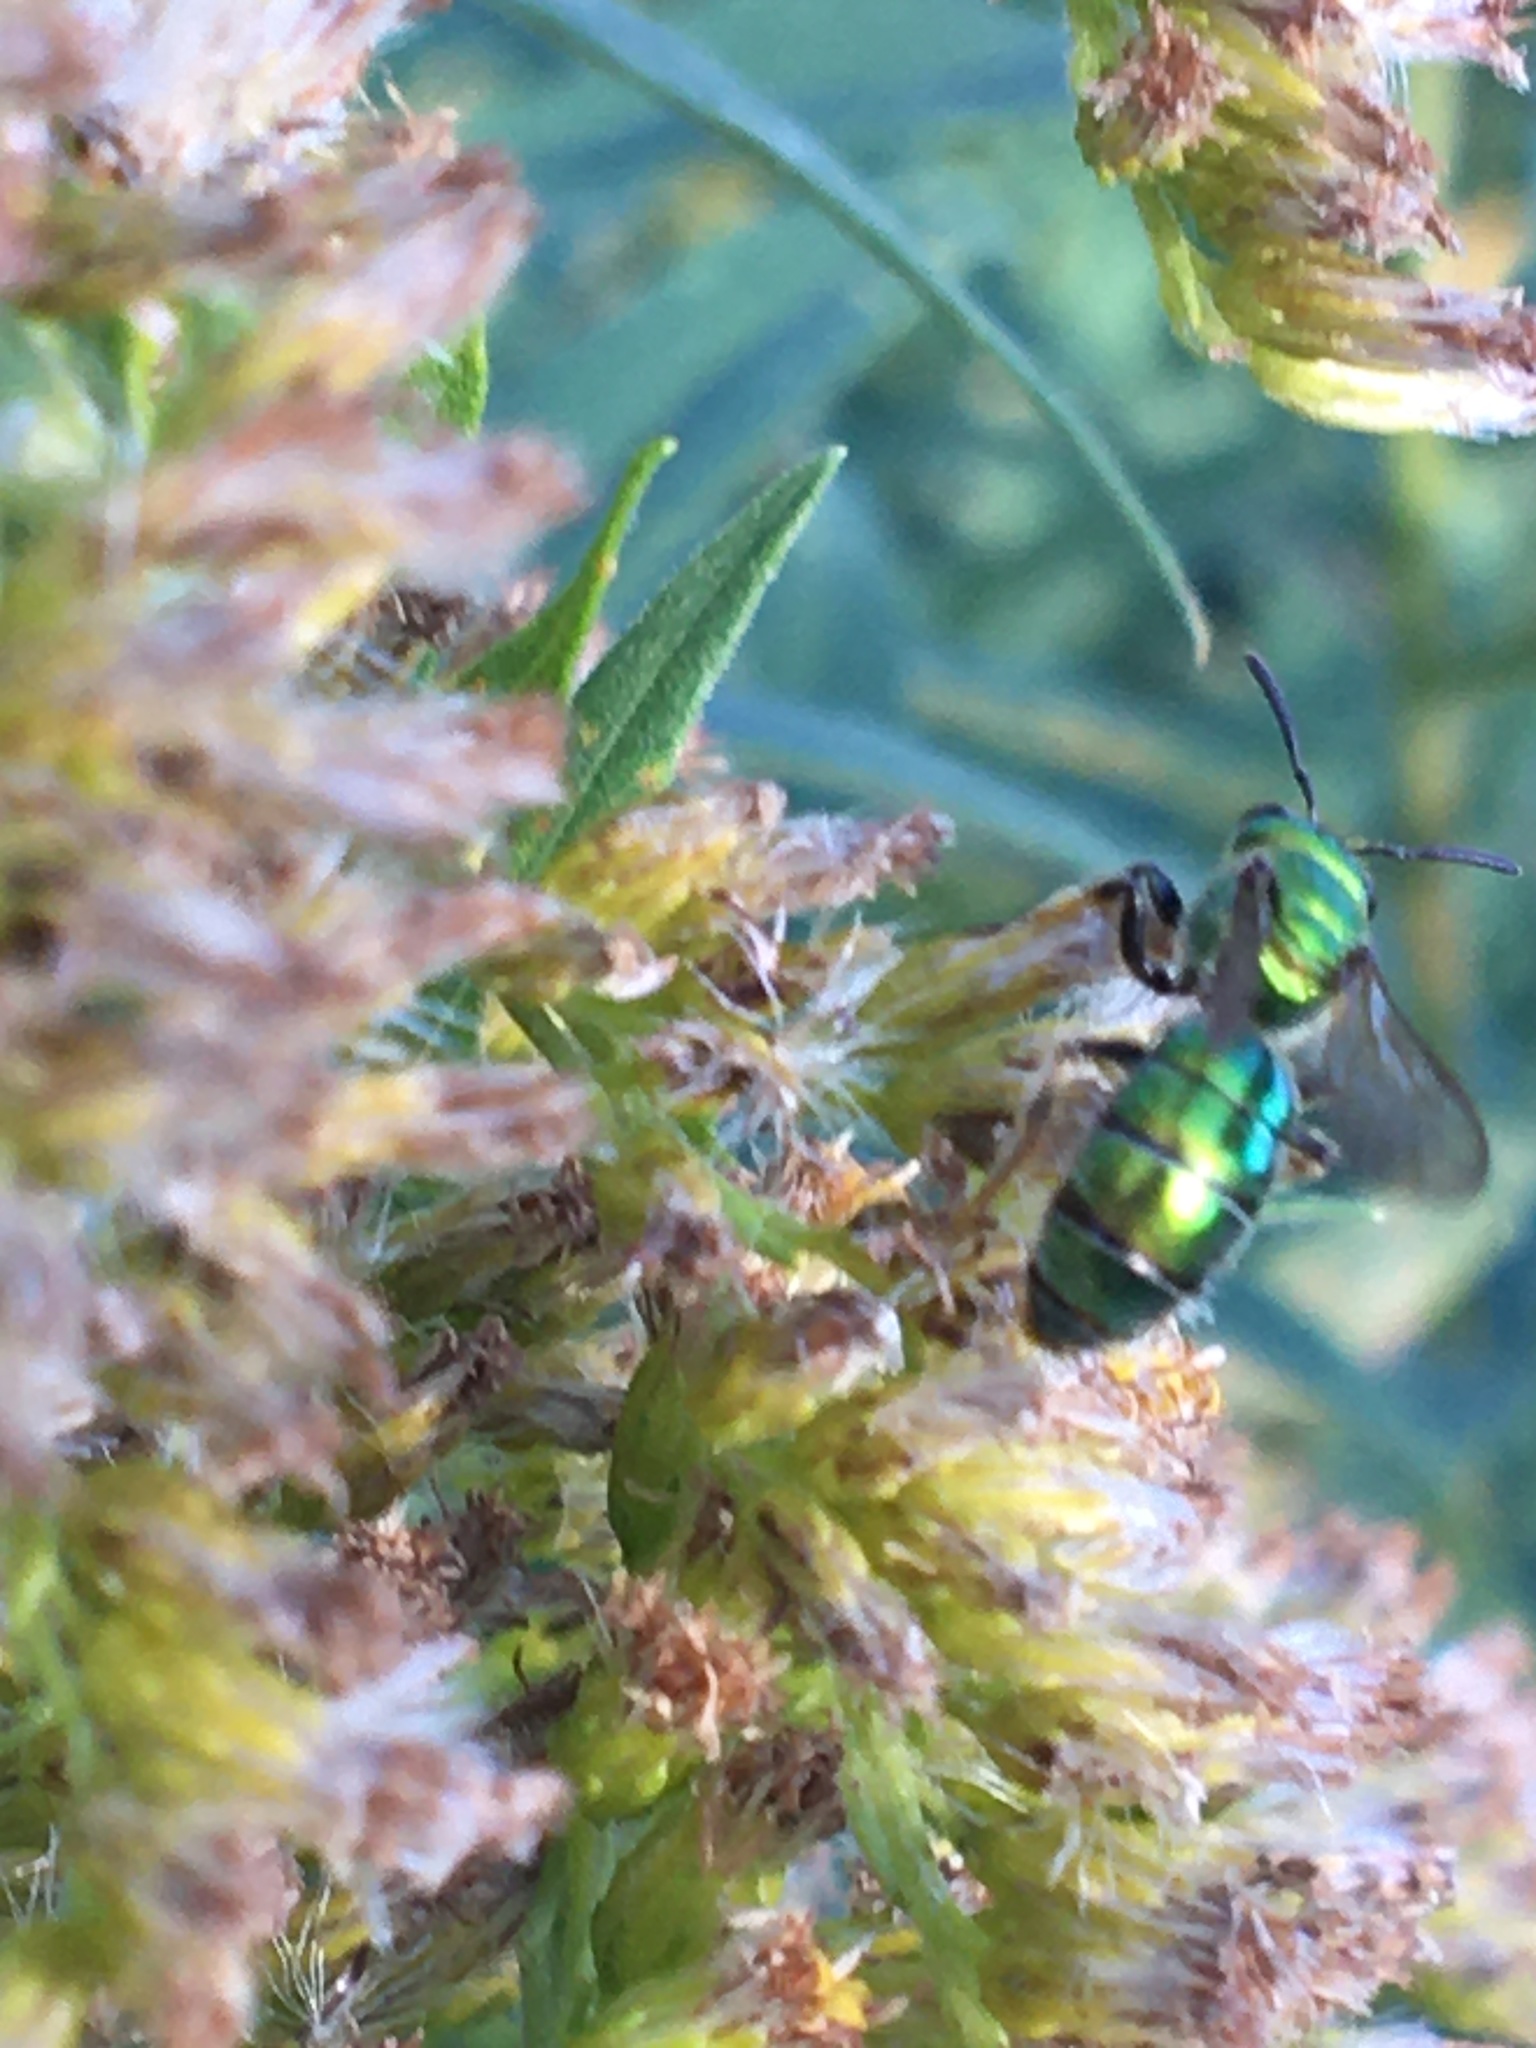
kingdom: Animalia
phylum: Arthropoda
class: Insecta
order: Hymenoptera
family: Halictidae
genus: Augochlora
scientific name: Augochlora pura
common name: Pure green sweat bee
